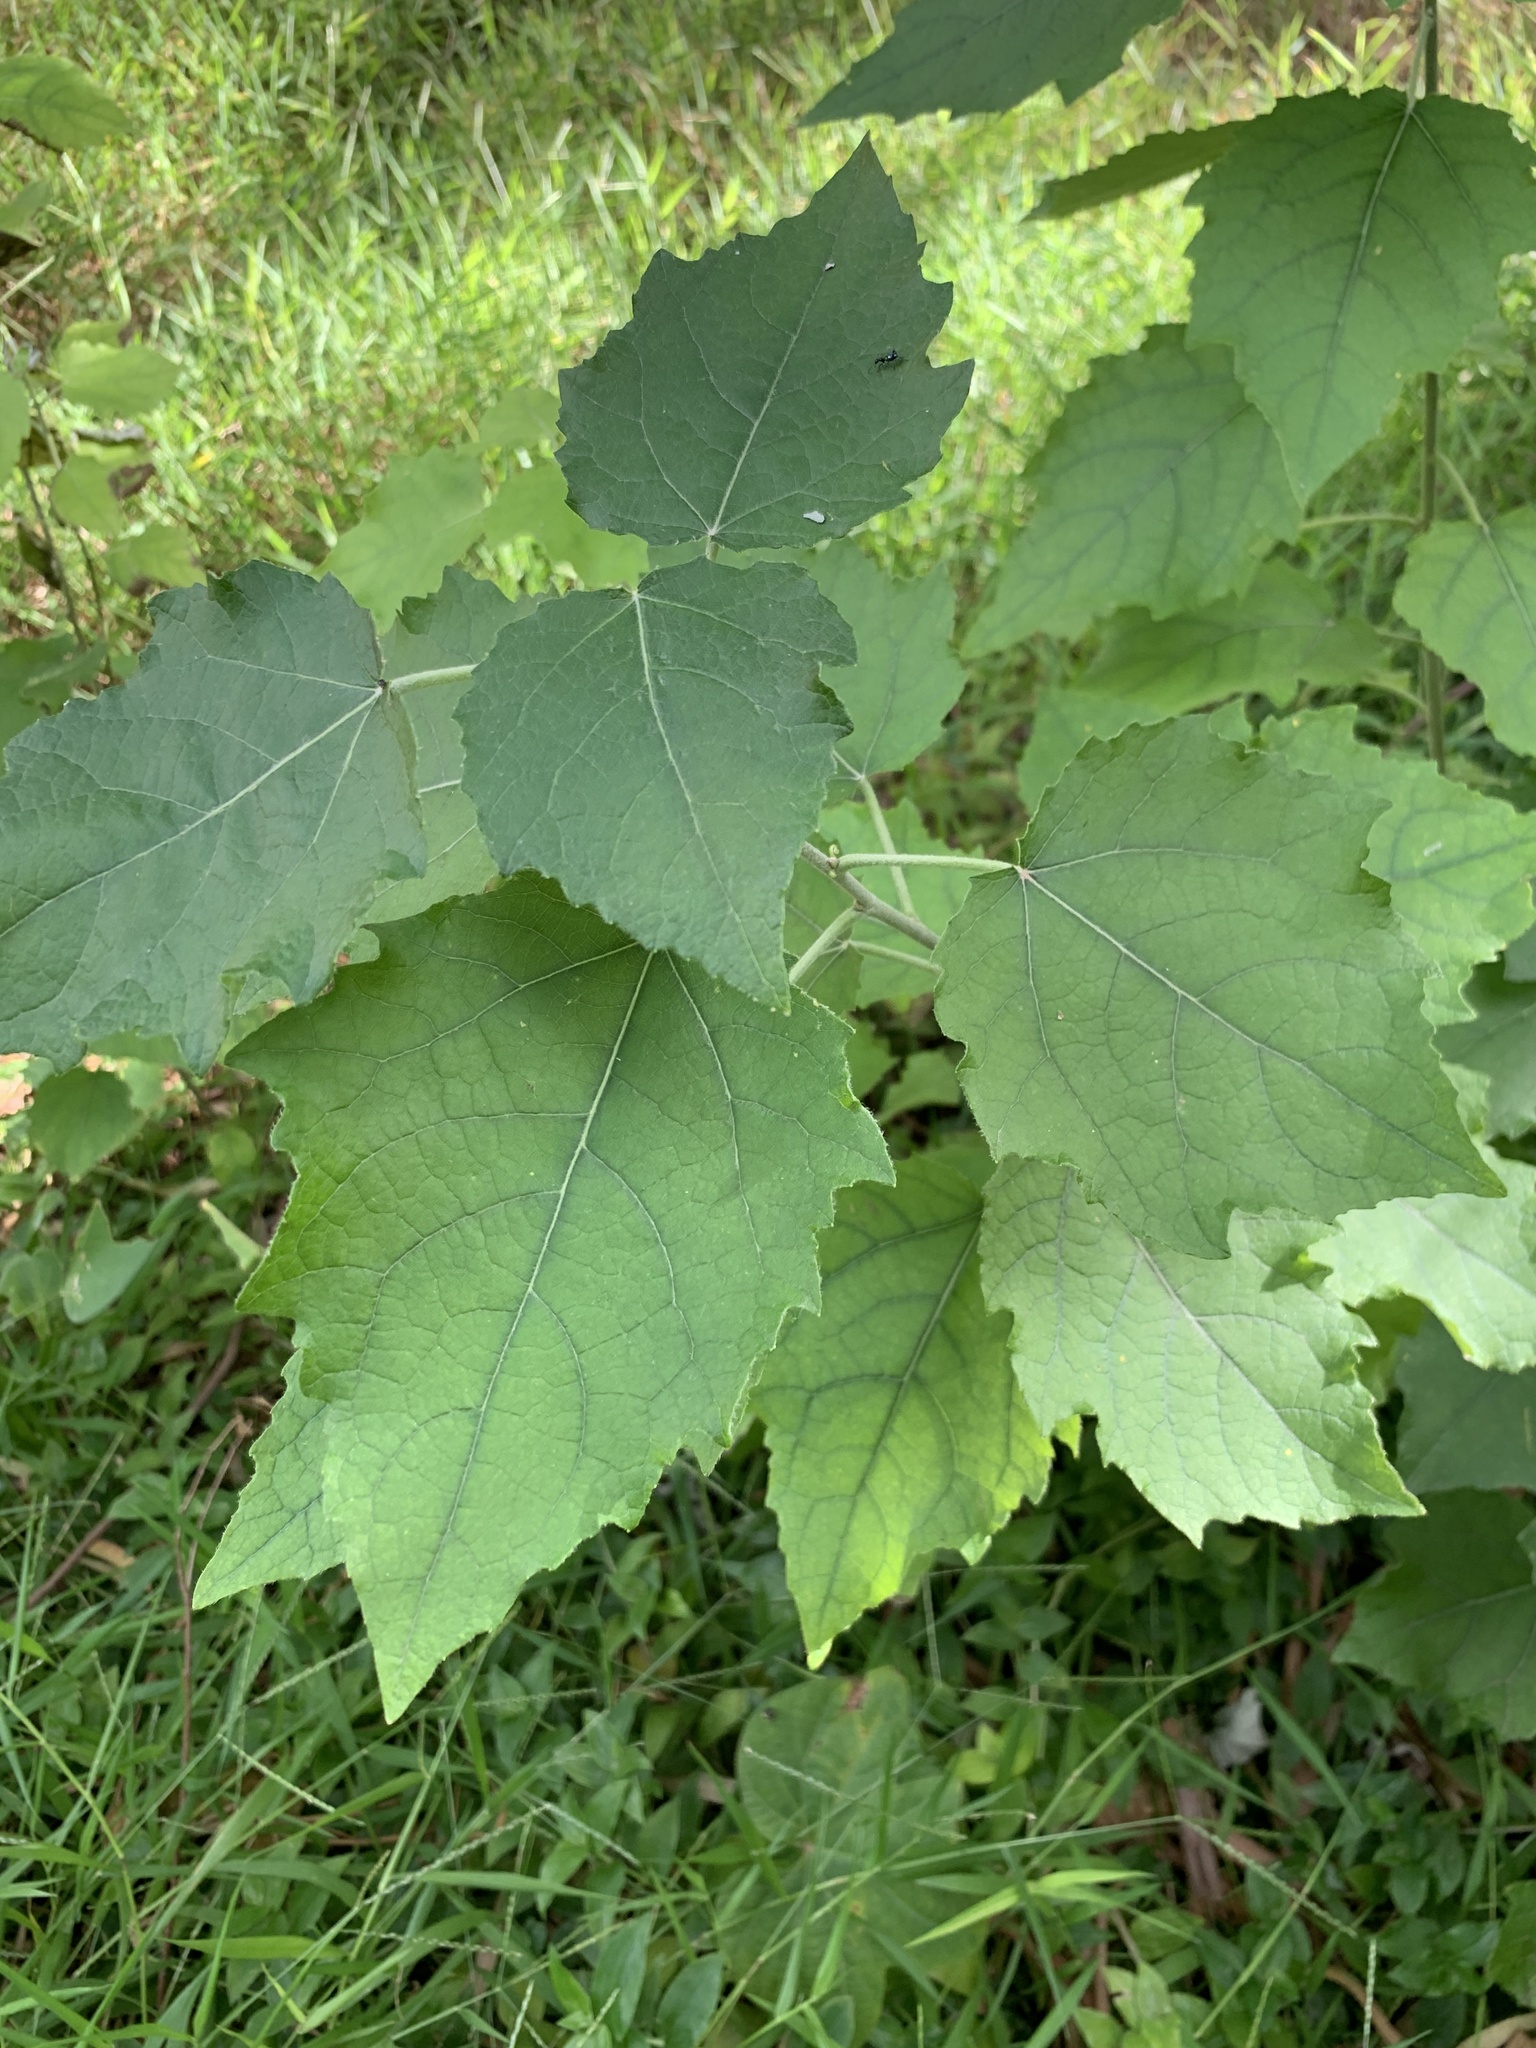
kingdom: Plantae
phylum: Tracheophyta
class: Magnoliopsida
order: Malpighiales
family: Salicaceae
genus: Populus
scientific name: Populus canescens
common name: Gray poplar
